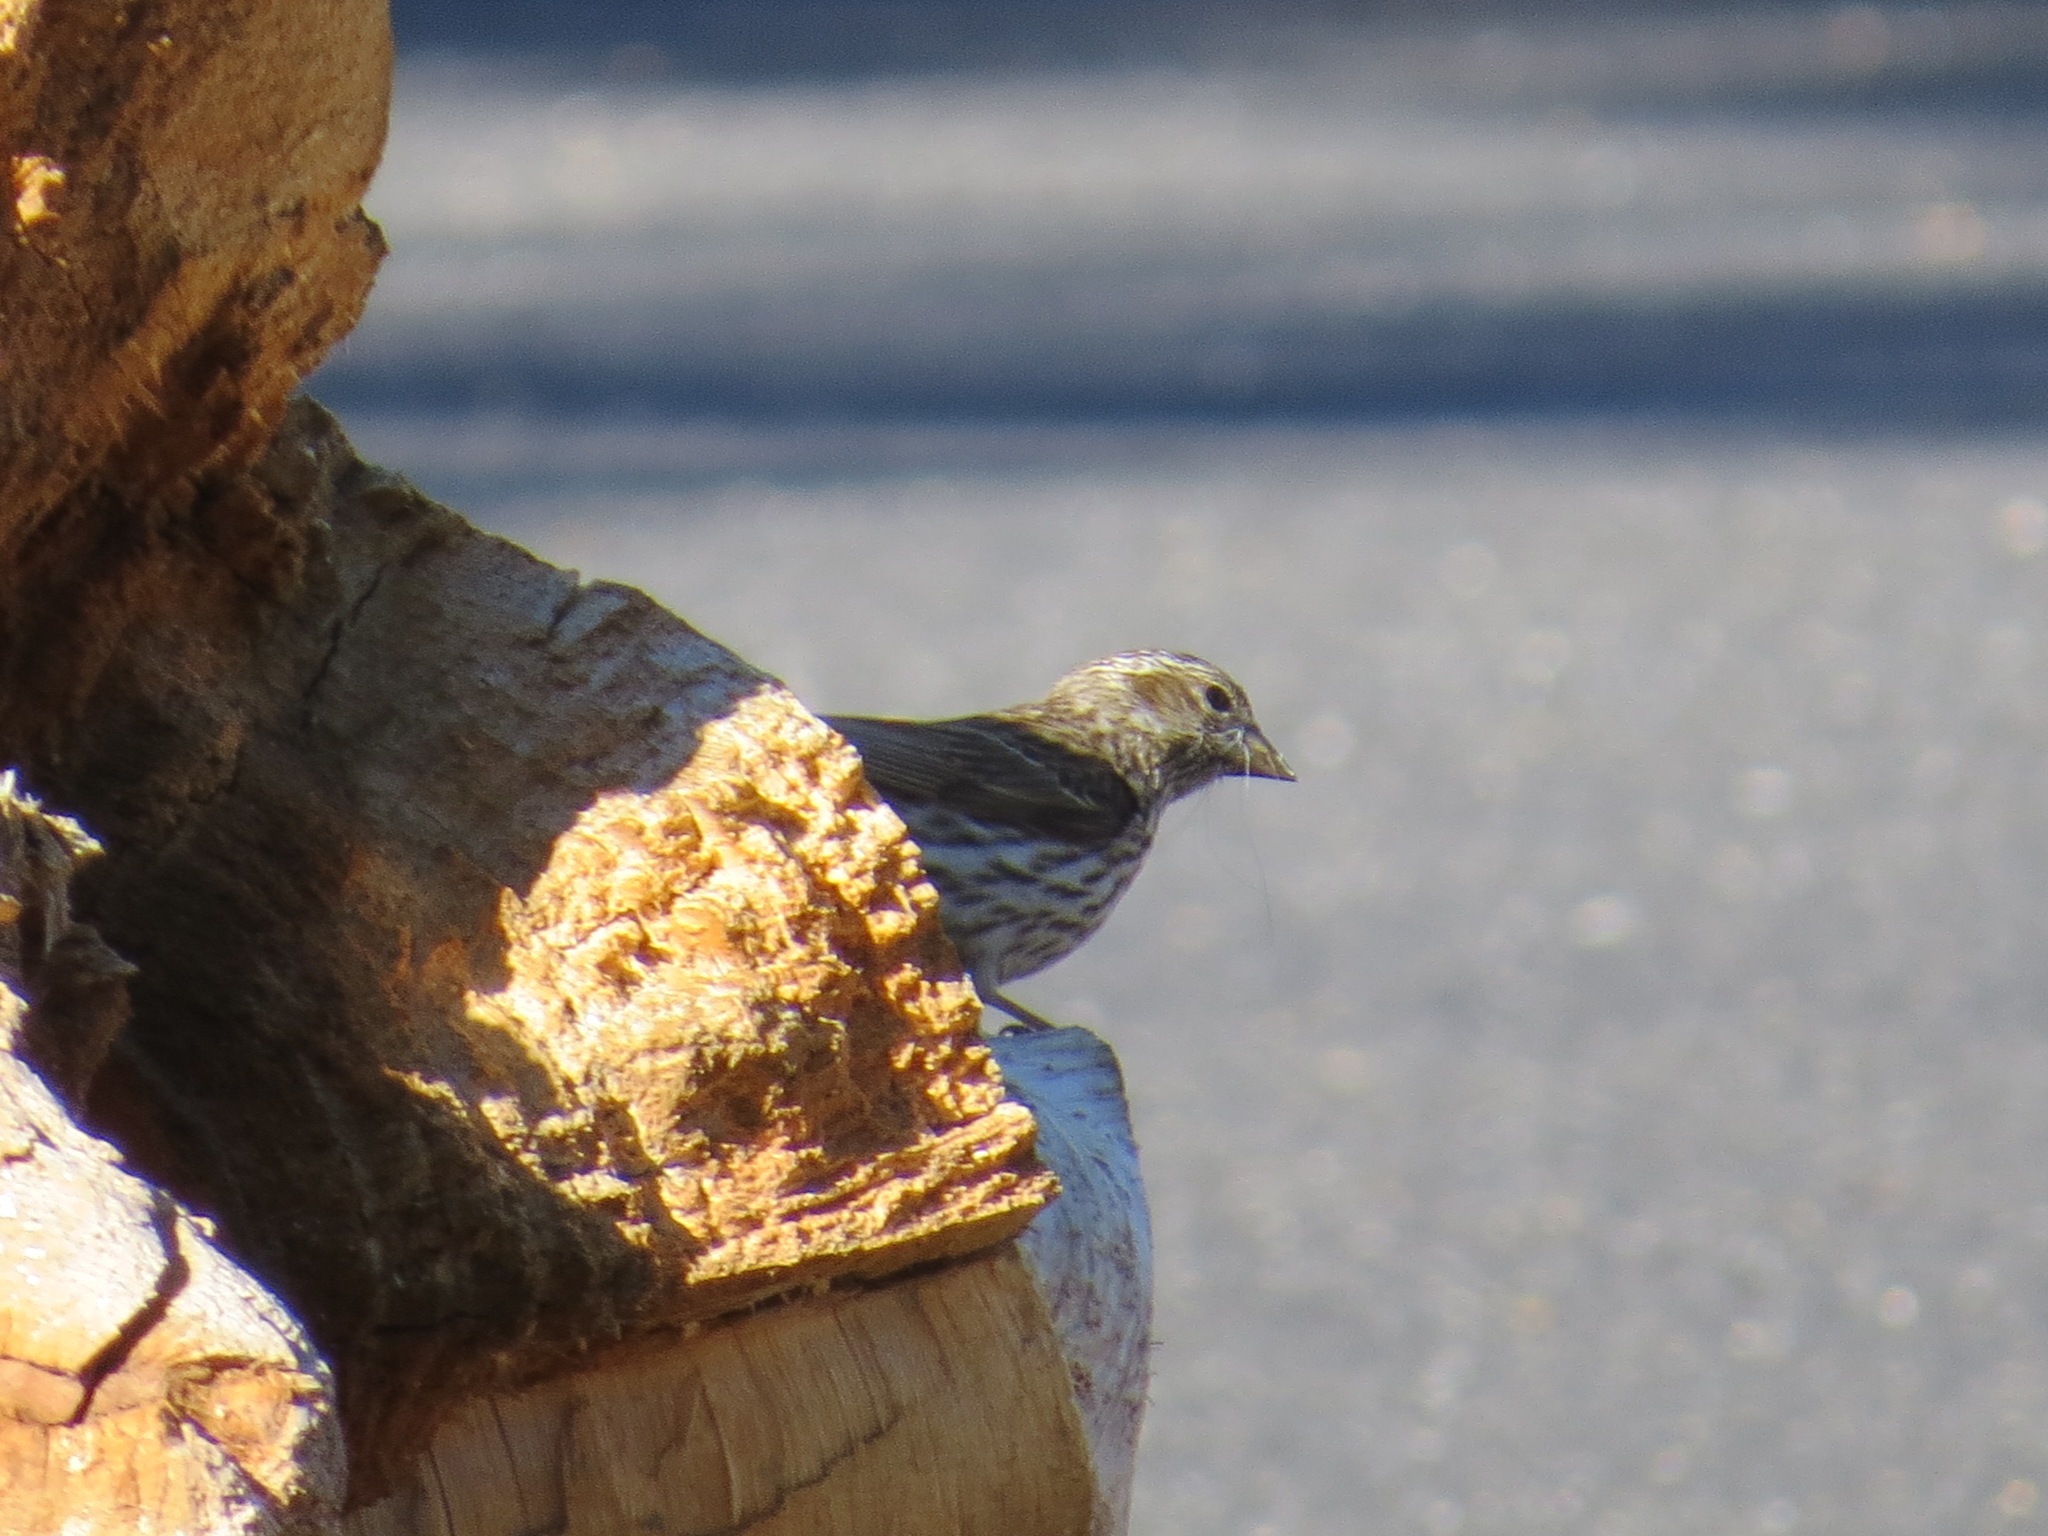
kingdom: Animalia
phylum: Chordata
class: Aves
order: Passeriformes
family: Fringillidae
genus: Haemorhous
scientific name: Haemorhous cassinii
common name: Cassin's finch
